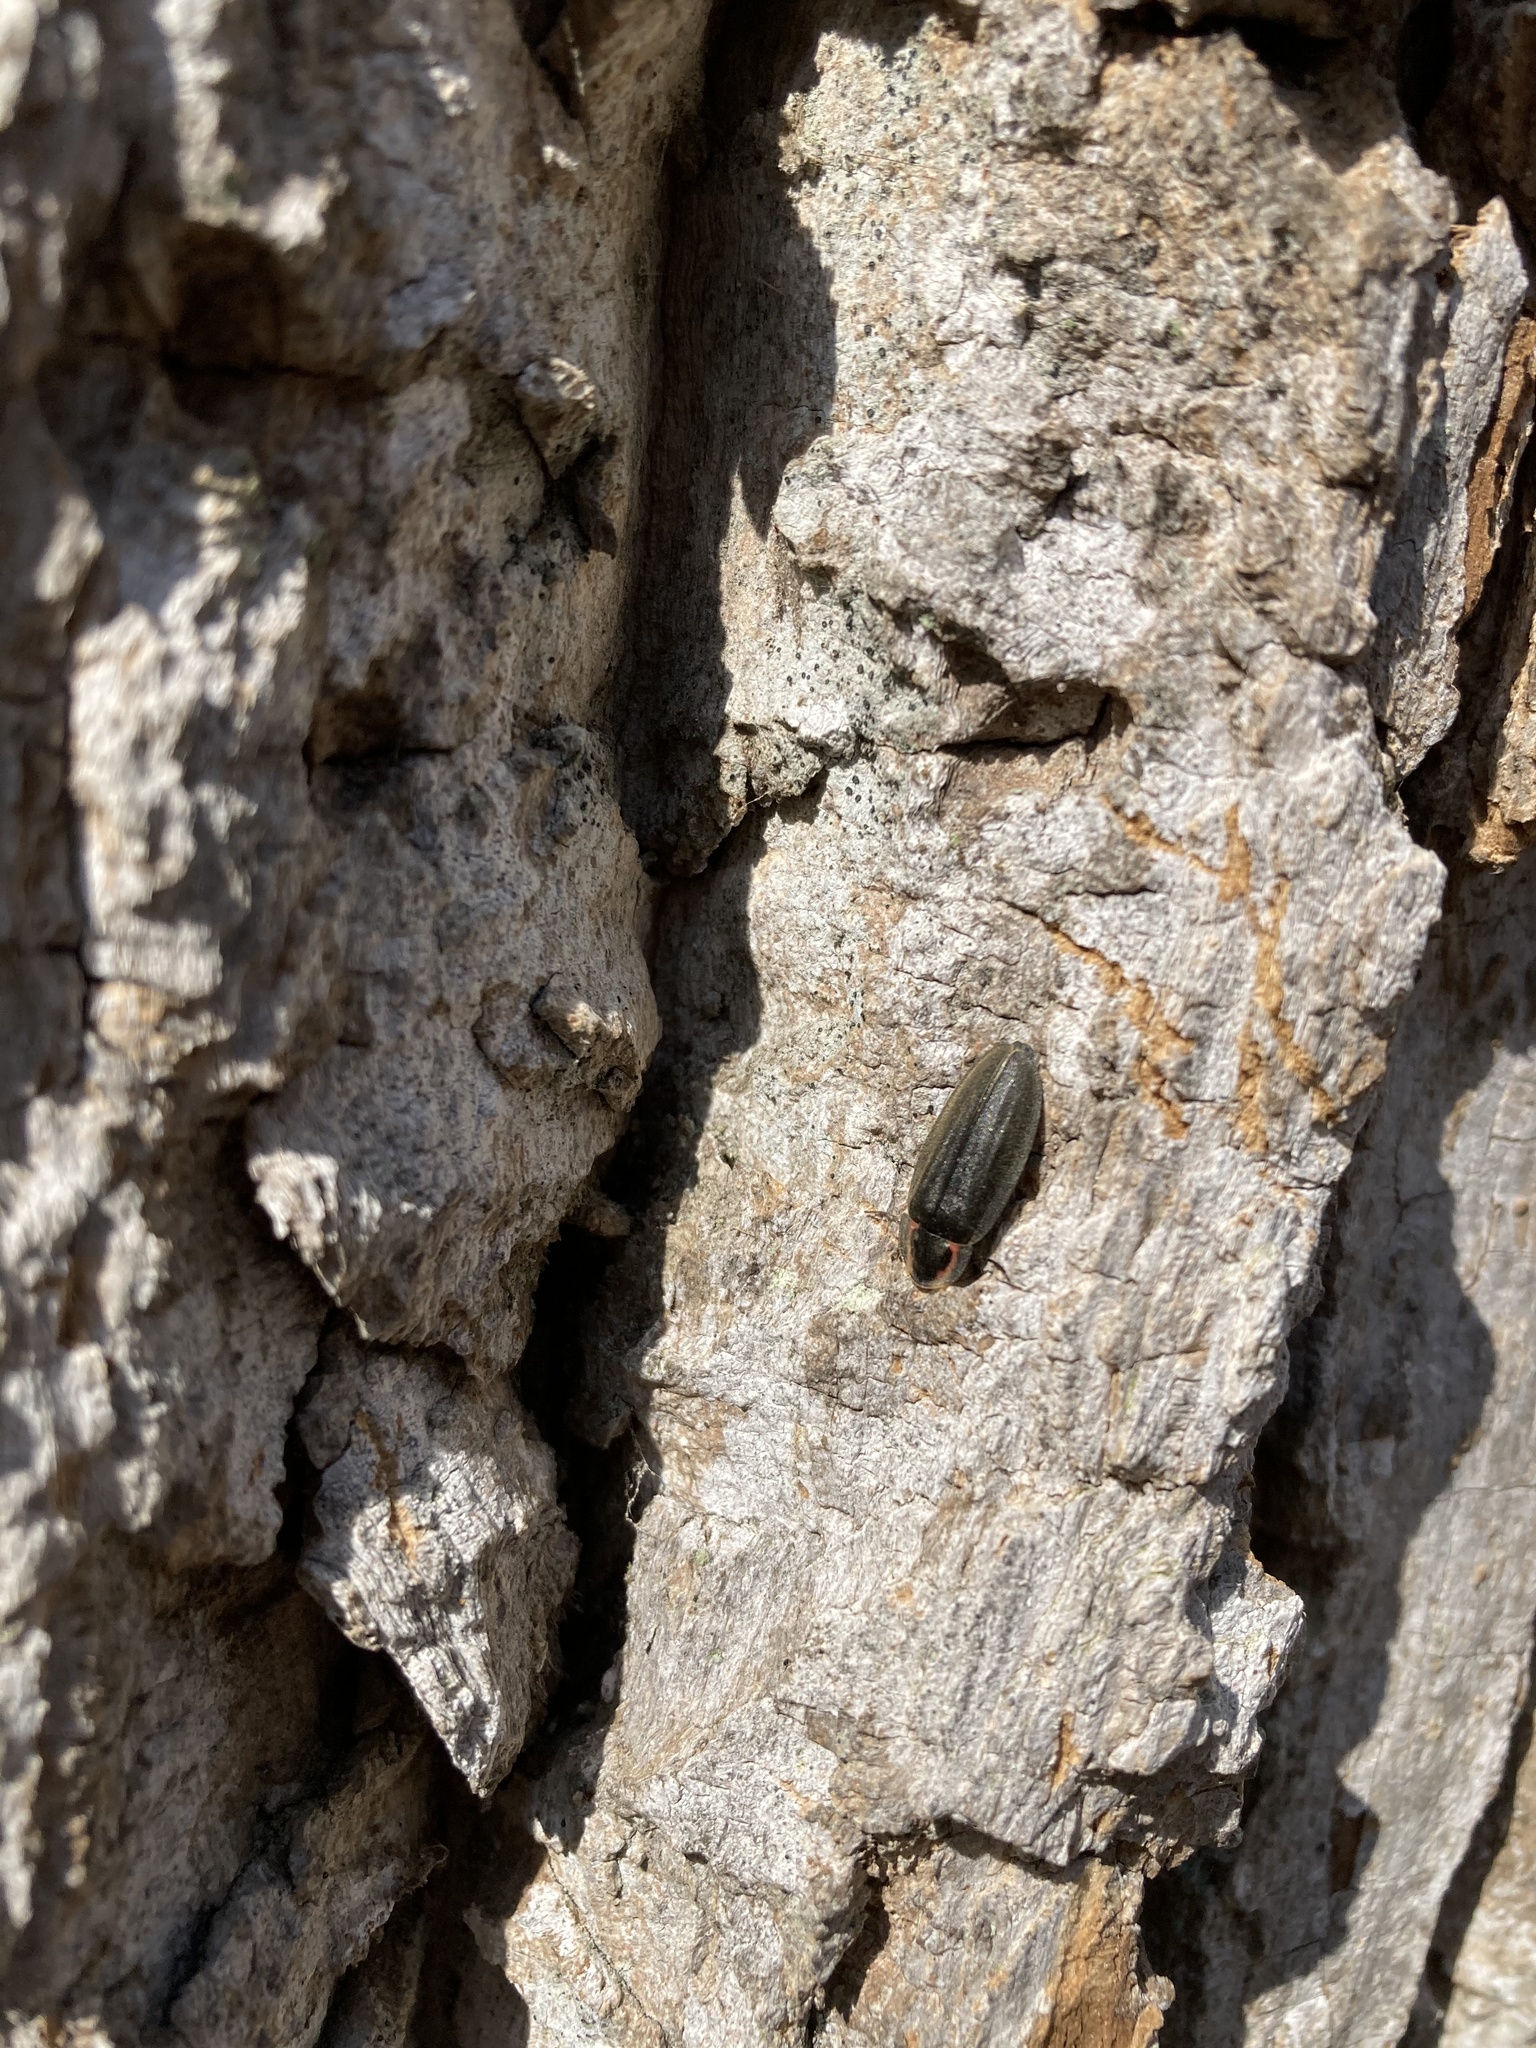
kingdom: Animalia
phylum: Arthropoda
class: Insecta
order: Coleoptera
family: Lampyridae
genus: Photinus
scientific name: Photinus corrusca
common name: Winter firefly
